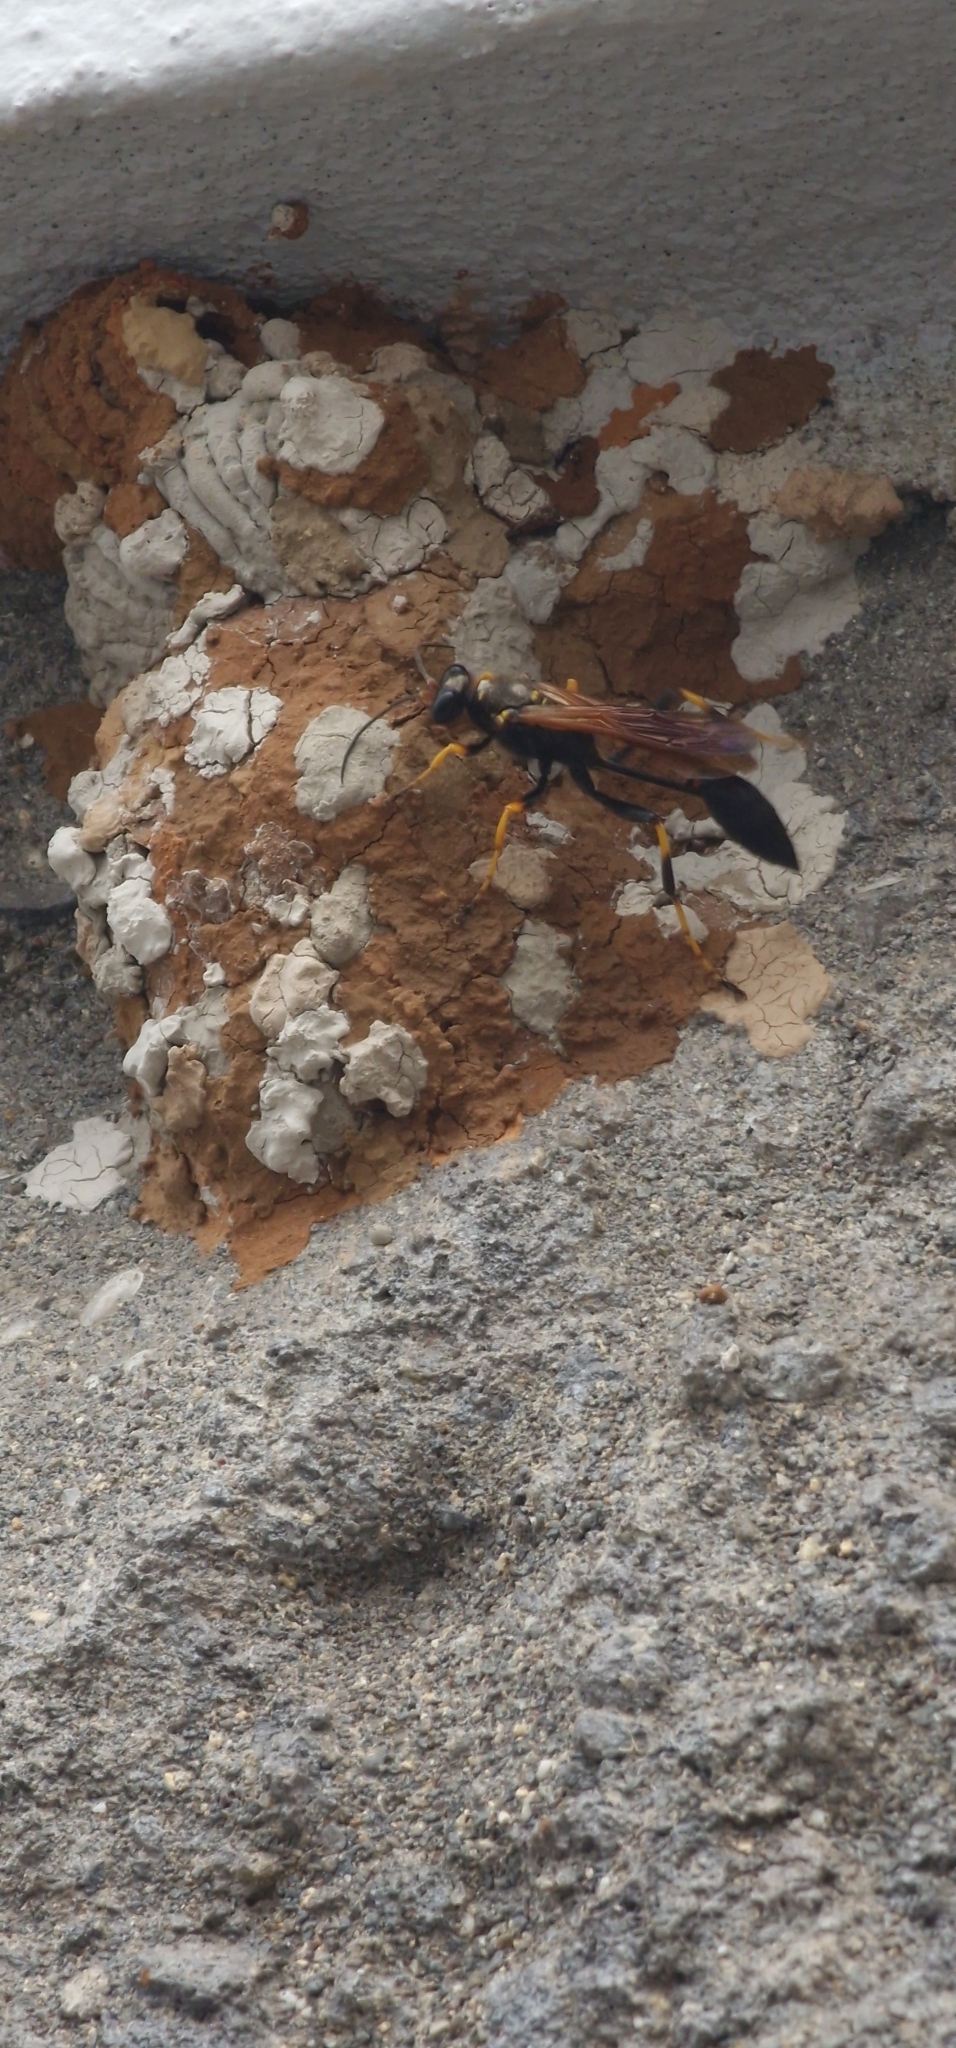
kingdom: Animalia
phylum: Arthropoda
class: Insecta
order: Hymenoptera
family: Sphecidae
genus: Sceliphron
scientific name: Sceliphron caementarium
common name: Mud dauber
